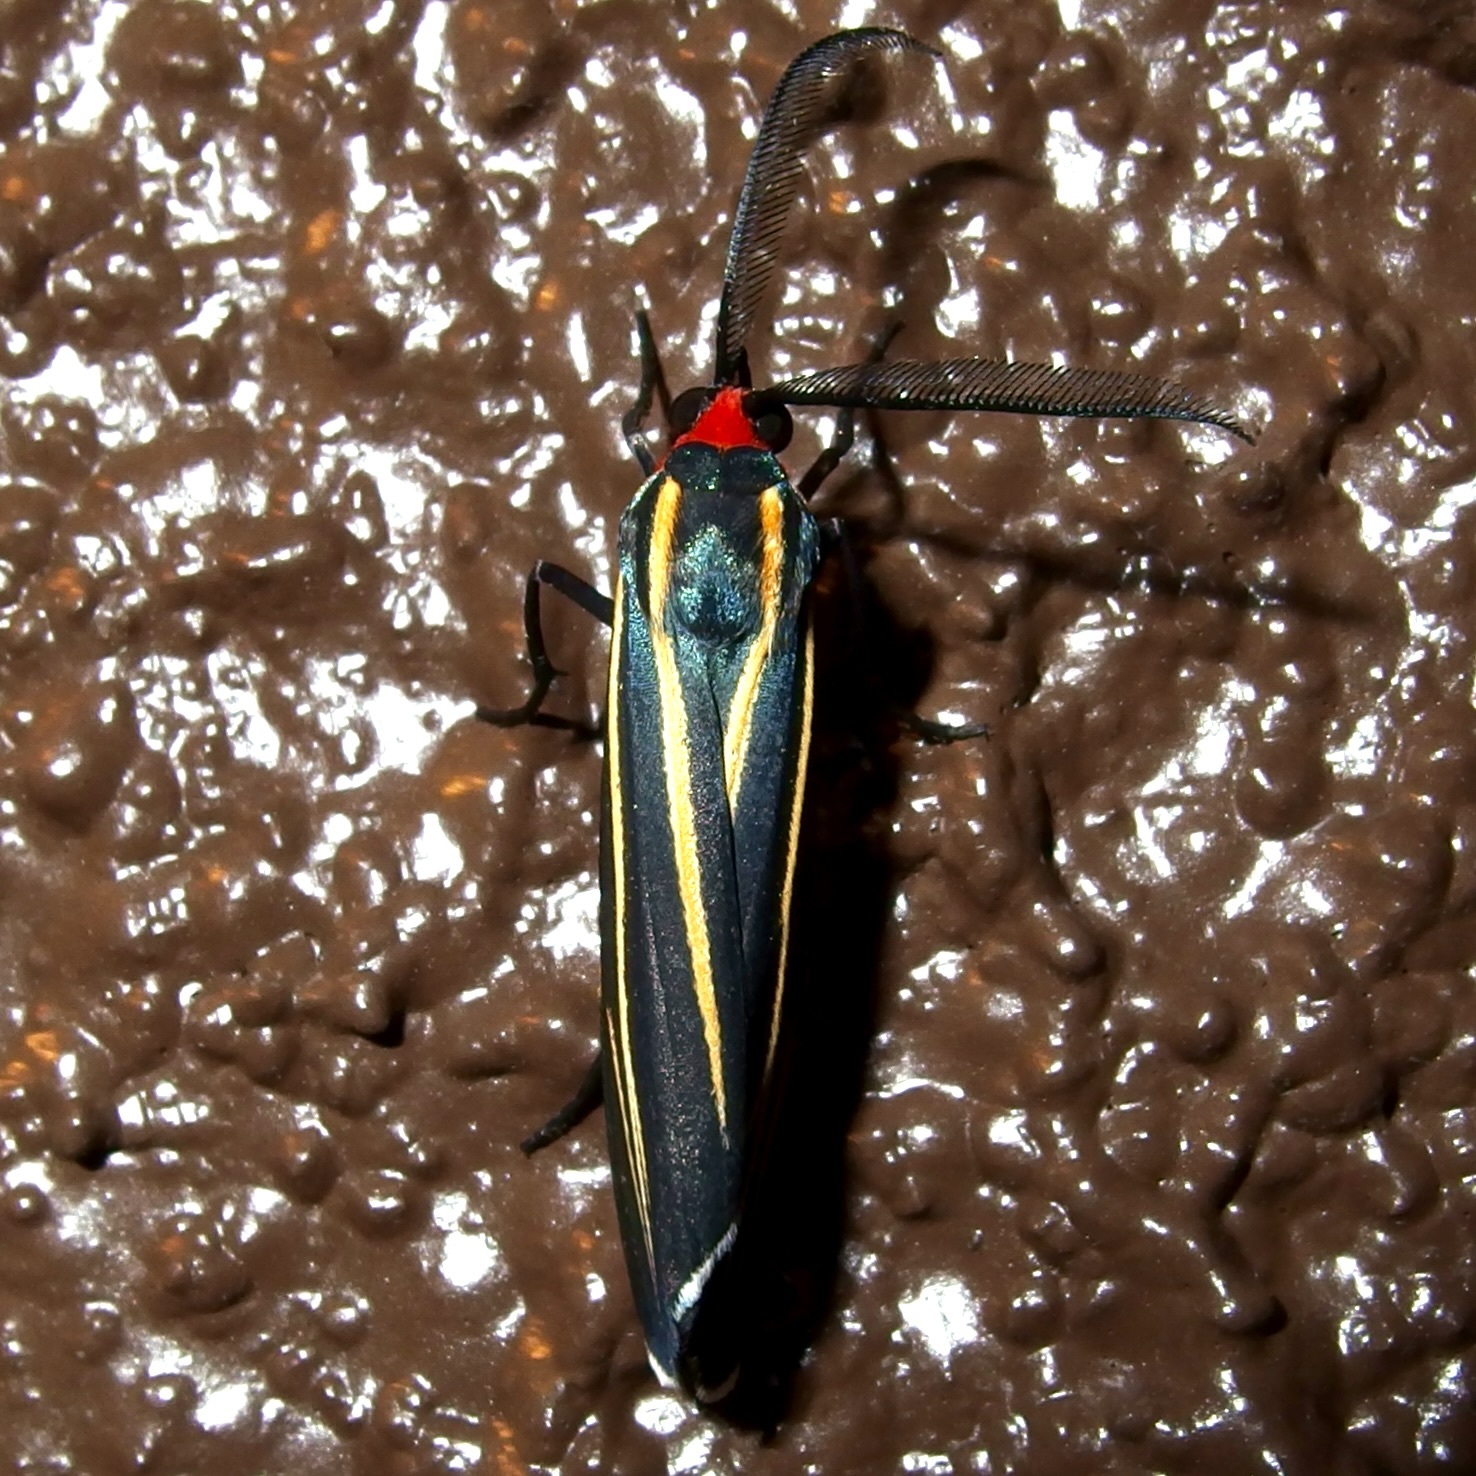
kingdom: Animalia
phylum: Arthropoda
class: Insecta
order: Lepidoptera
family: Erebidae
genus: Ctenucha
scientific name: Ctenucha venosa
